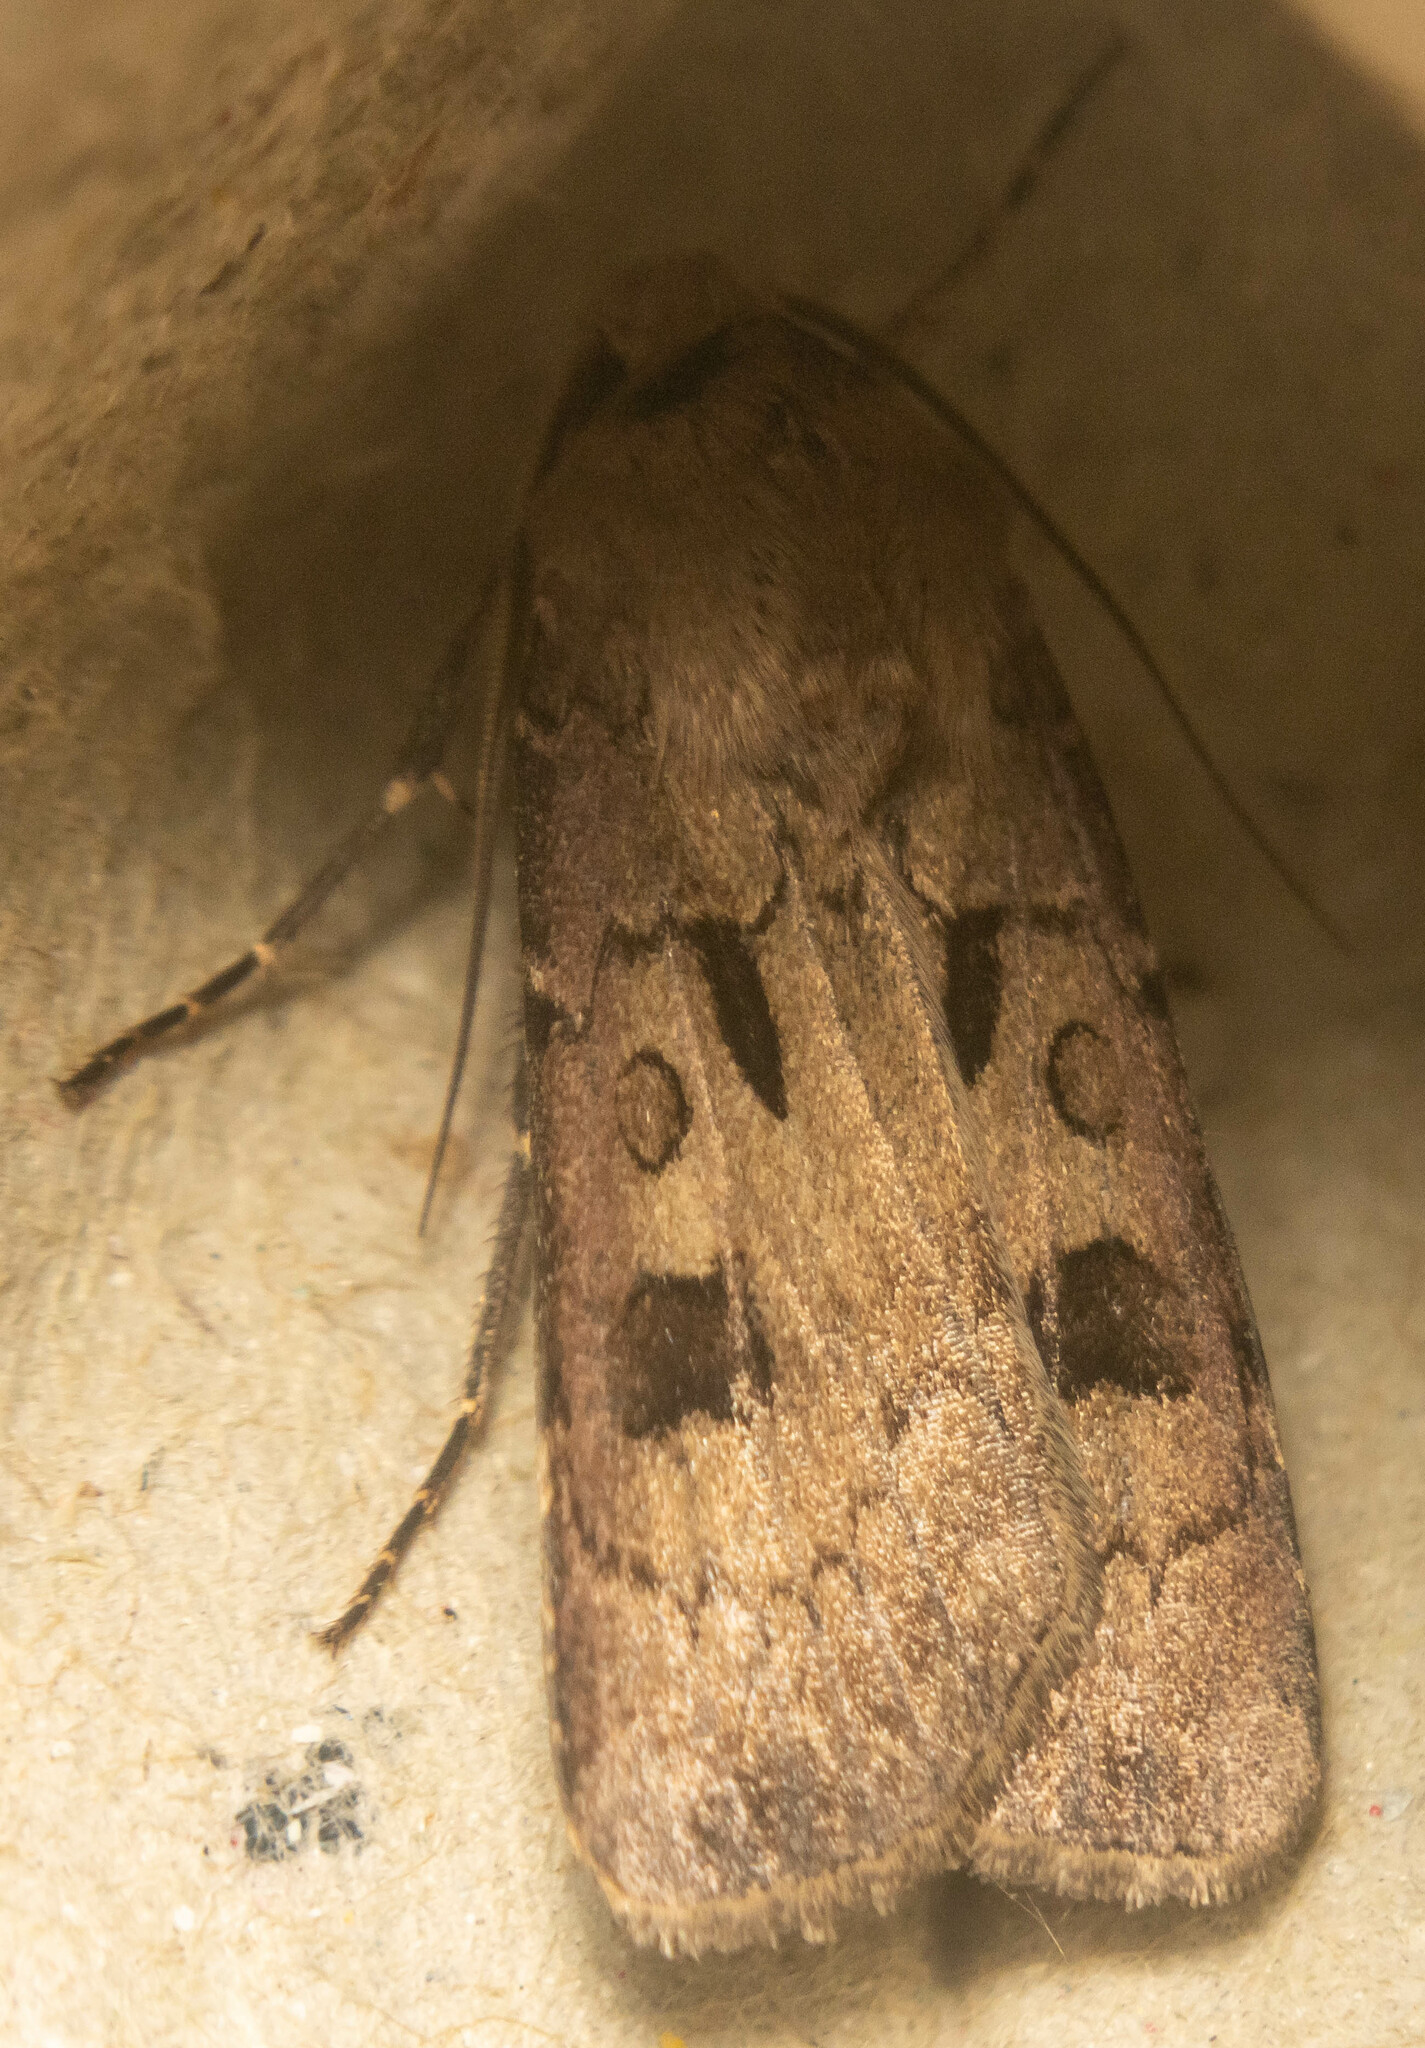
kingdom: Animalia
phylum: Arthropoda
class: Insecta
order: Lepidoptera
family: Noctuidae
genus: Agrotis
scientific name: Agrotis exclamationis
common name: Heart and dart
